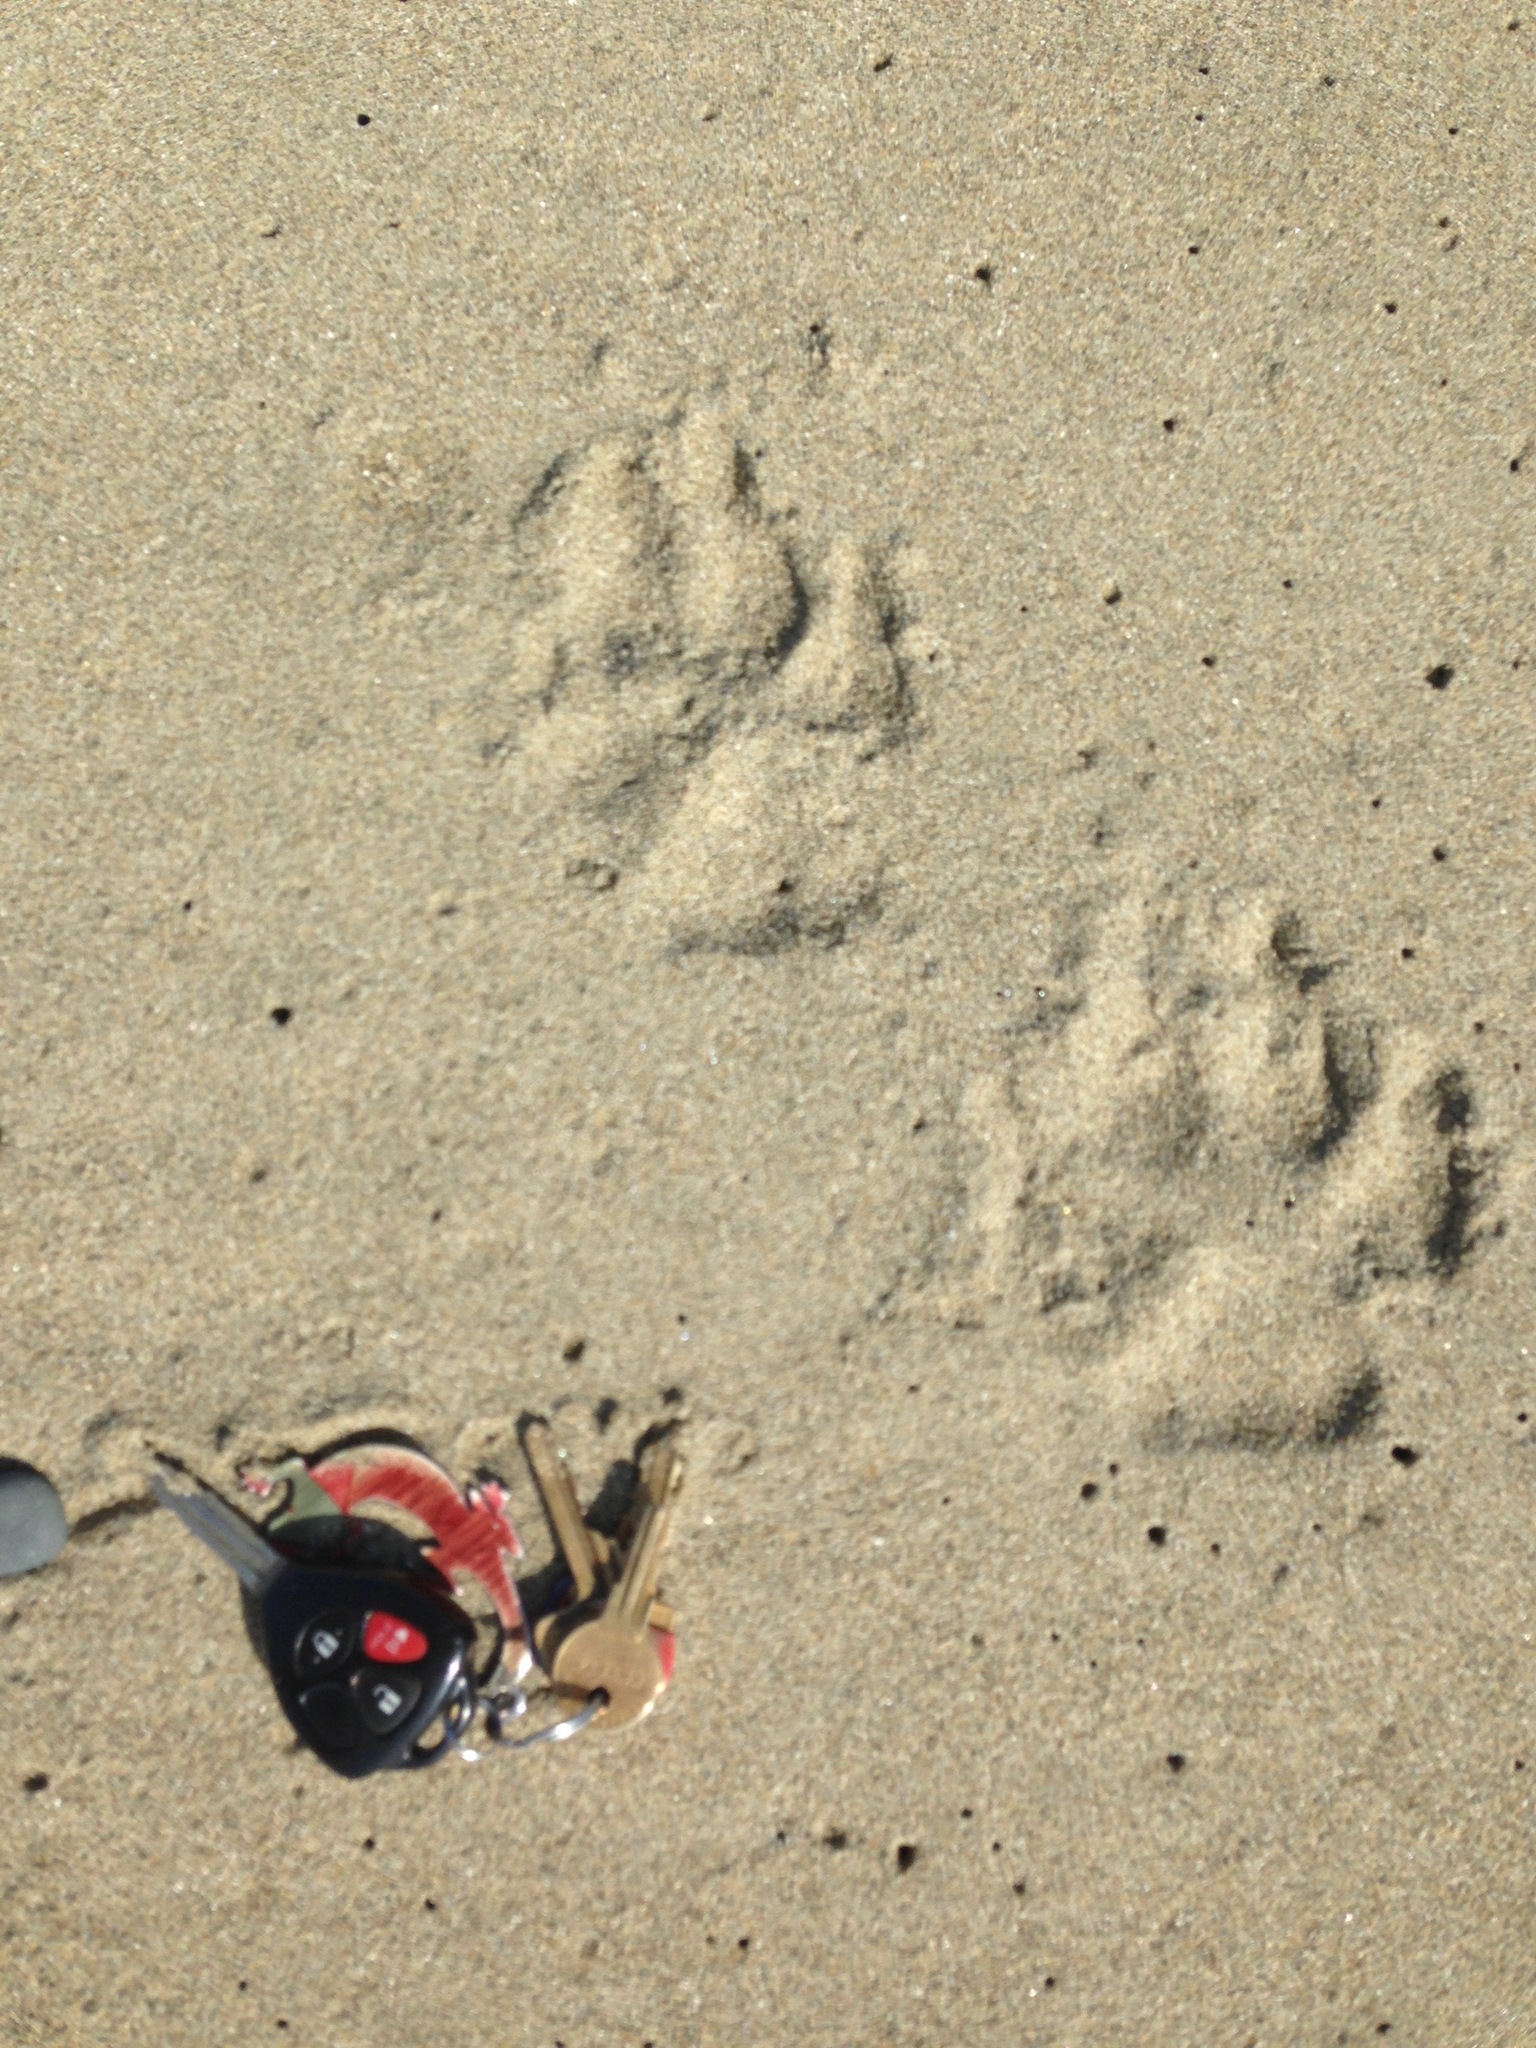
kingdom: Animalia
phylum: Chordata
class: Mammalia
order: Carnivora
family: Canidae
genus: Canis
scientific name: Canis lupus
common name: Gray wolf
